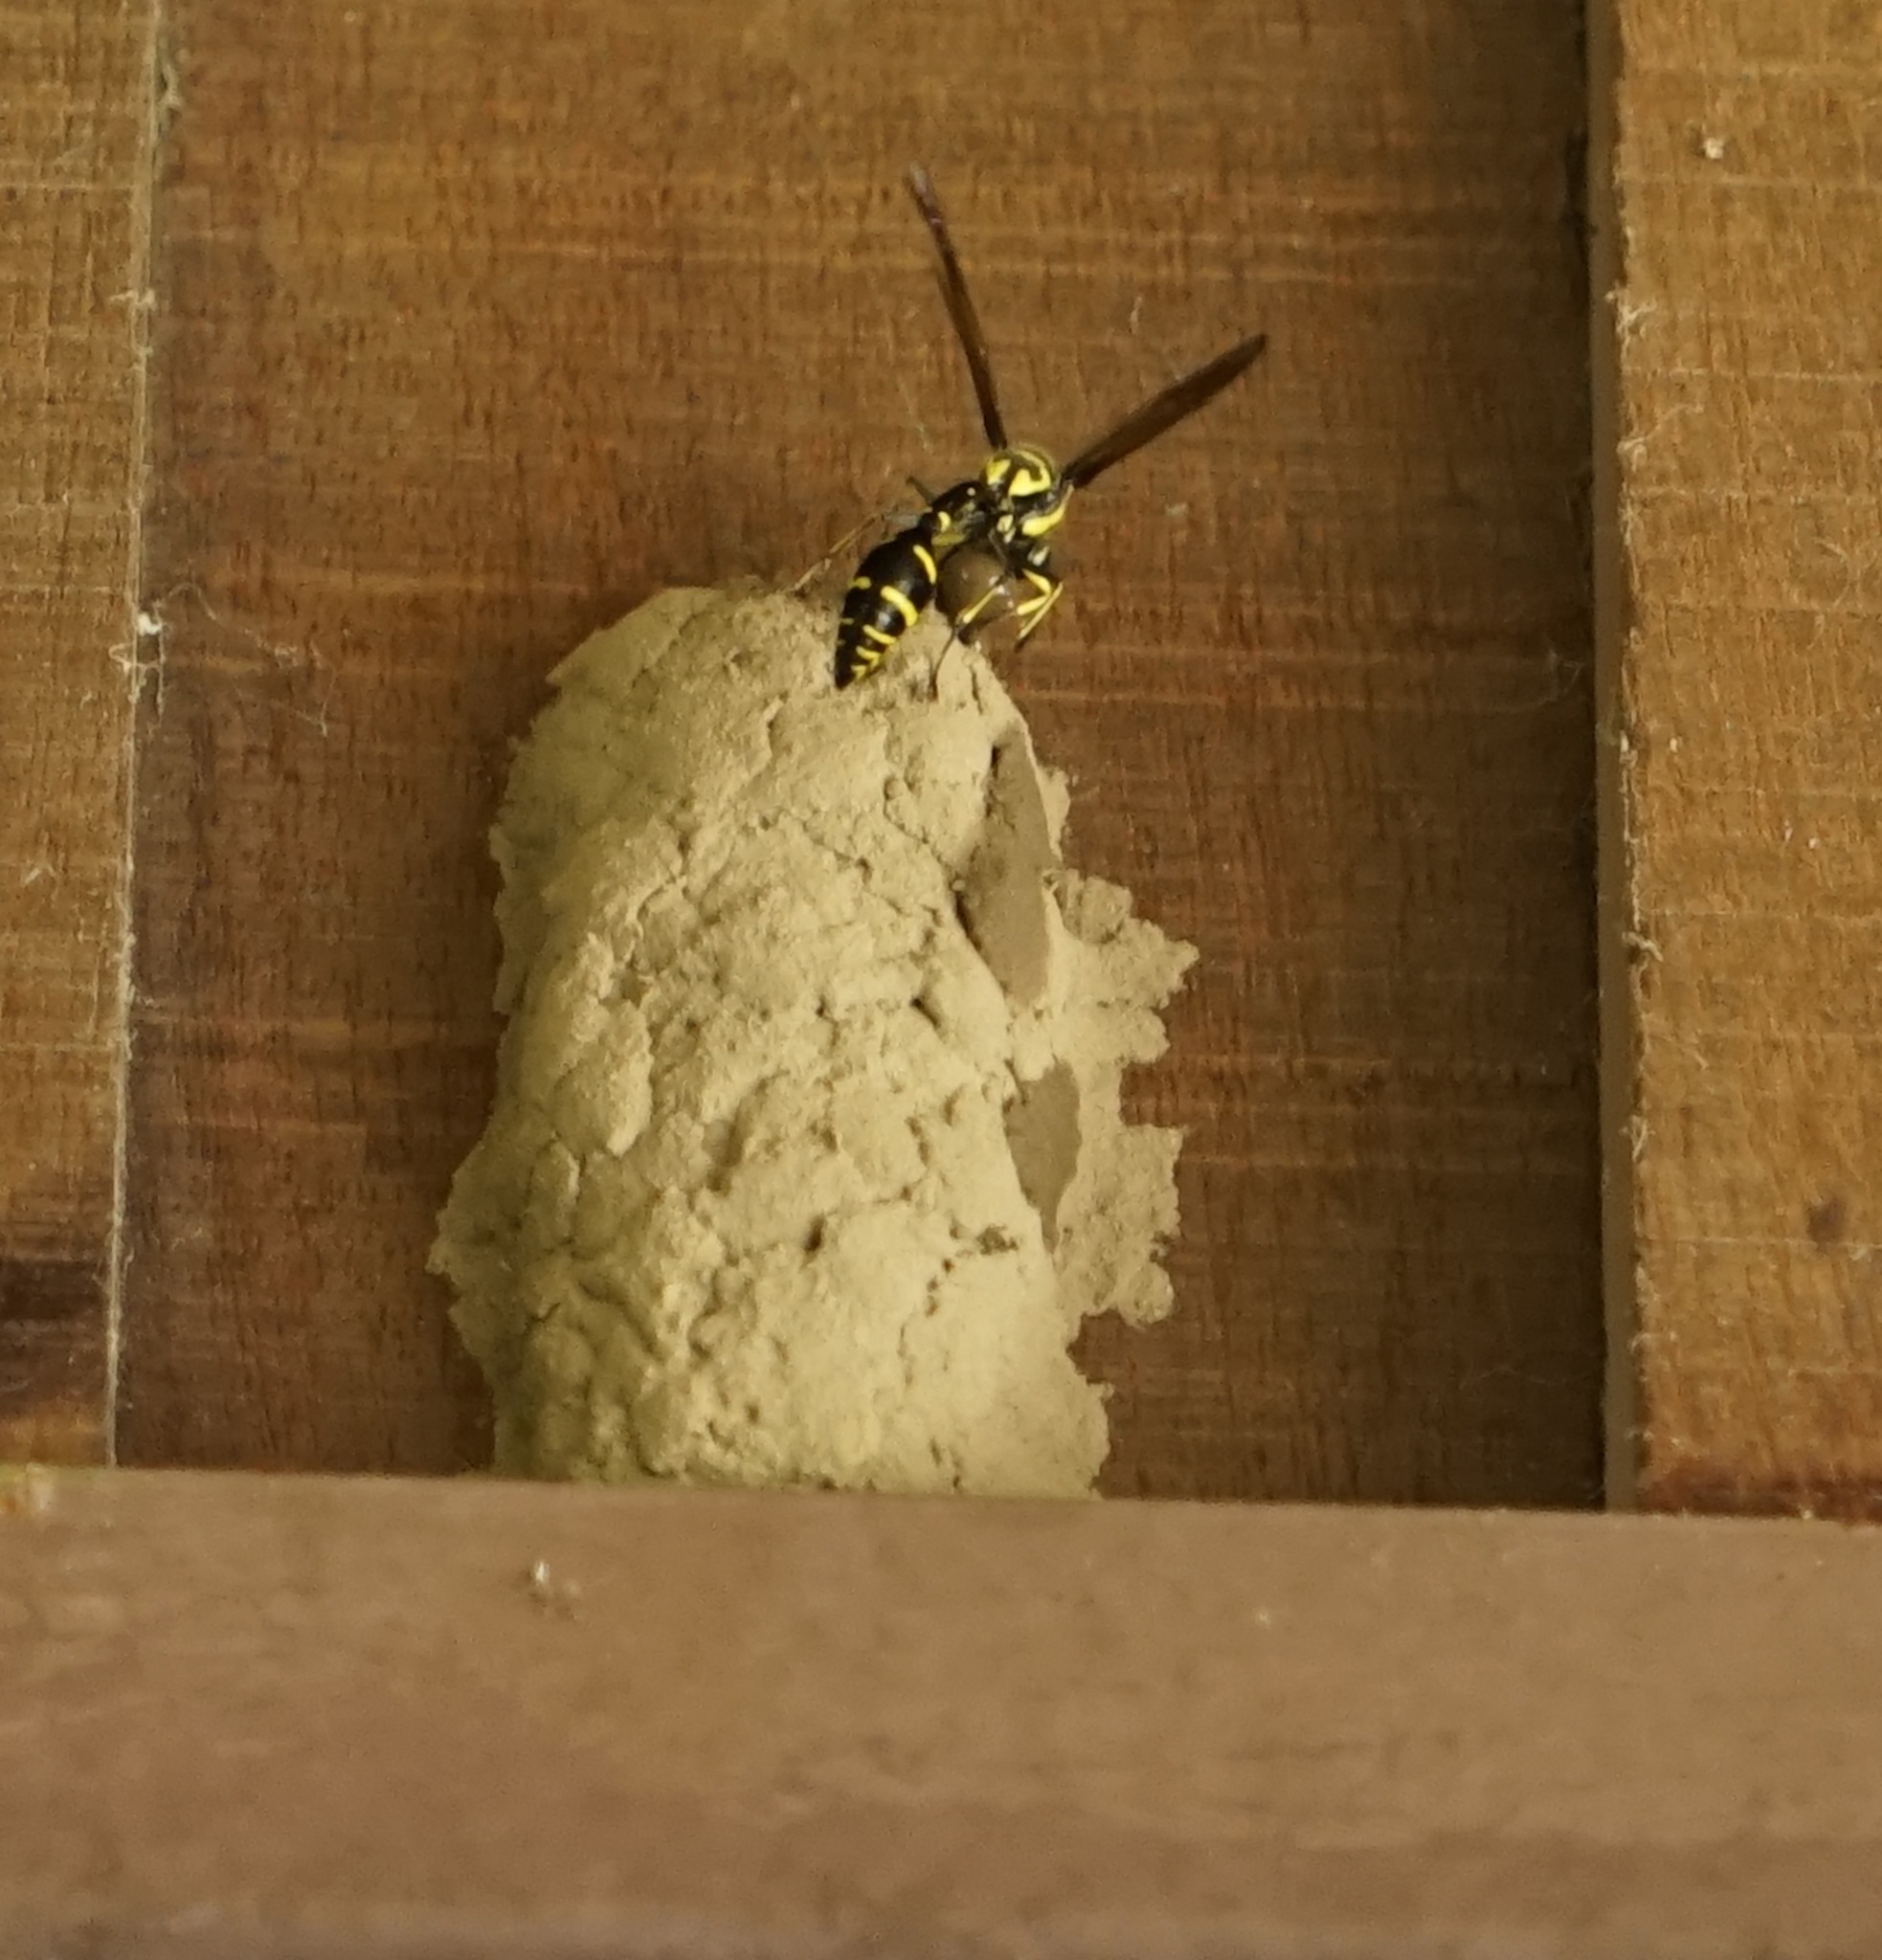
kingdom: Animalia
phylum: Arthropoda
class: Insecta
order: Hymenoptera
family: Eumenidae
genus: Phimenes
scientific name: Phimenes flavopictus
